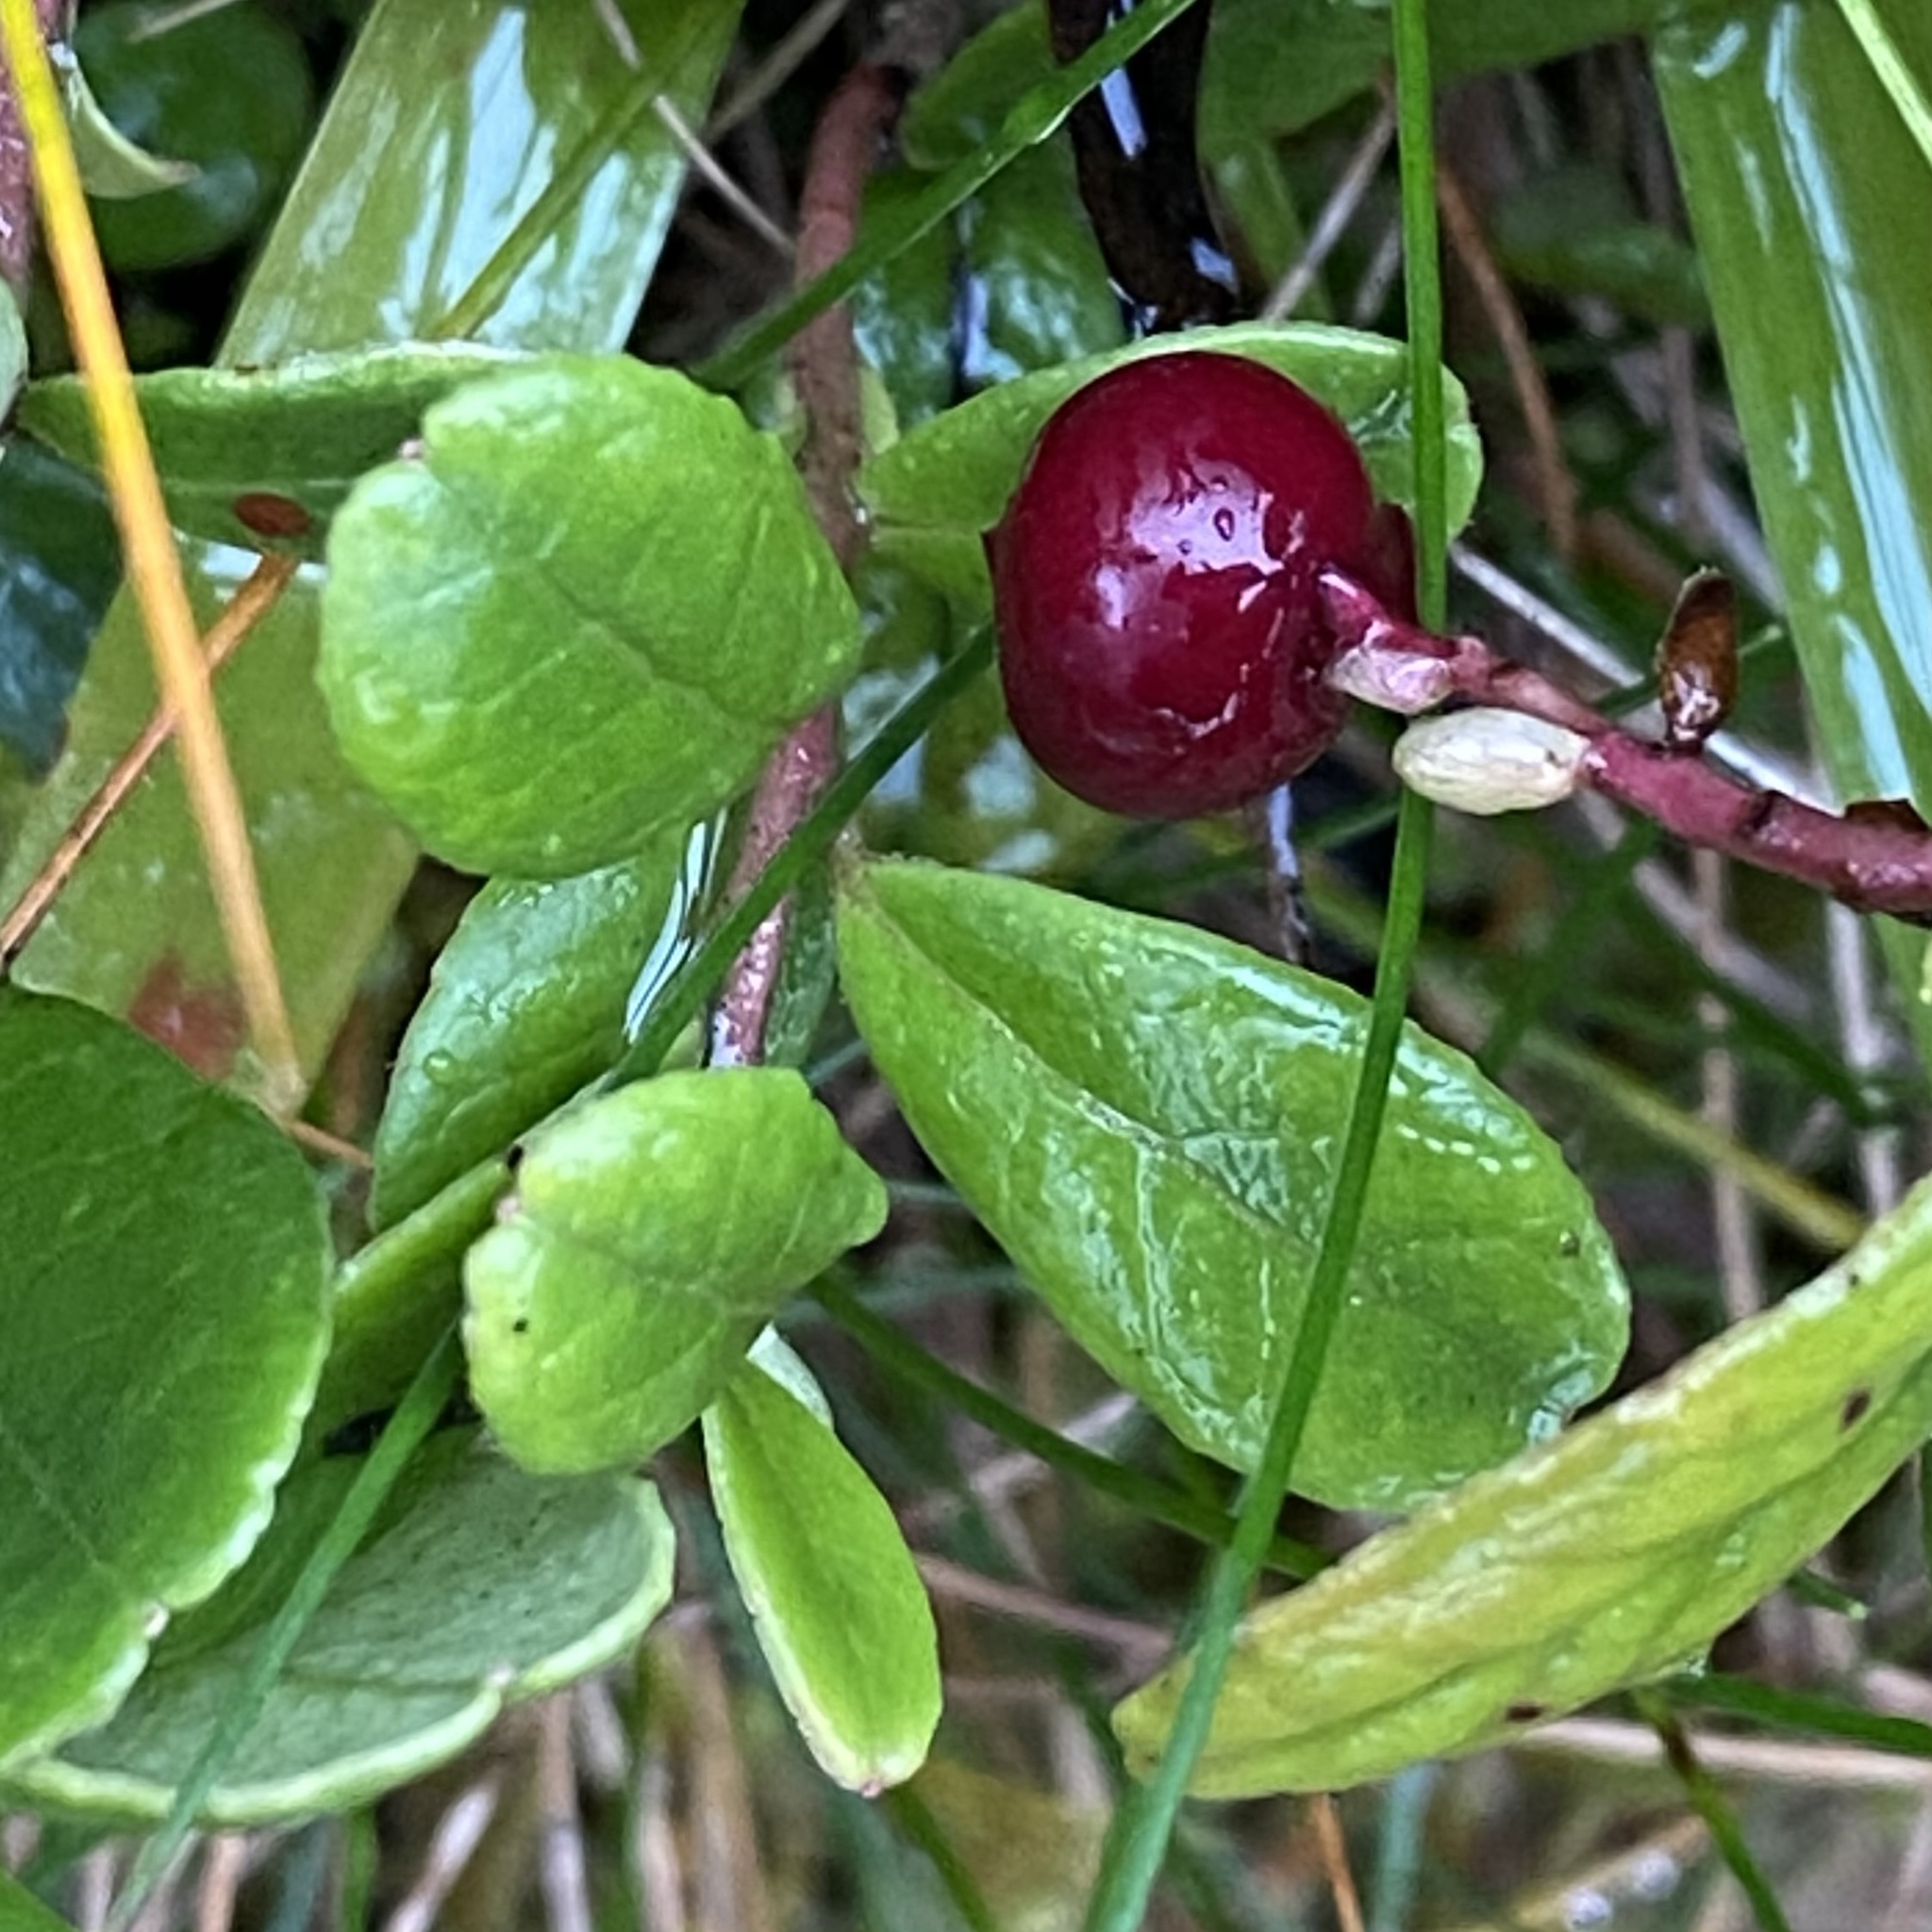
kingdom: Plantae
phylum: Tracheophyta
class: Magnoliopsida
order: Ericales
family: Ericaceae
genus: Vaccinium
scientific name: Vaccinium vitis-idaea
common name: Cowberry
